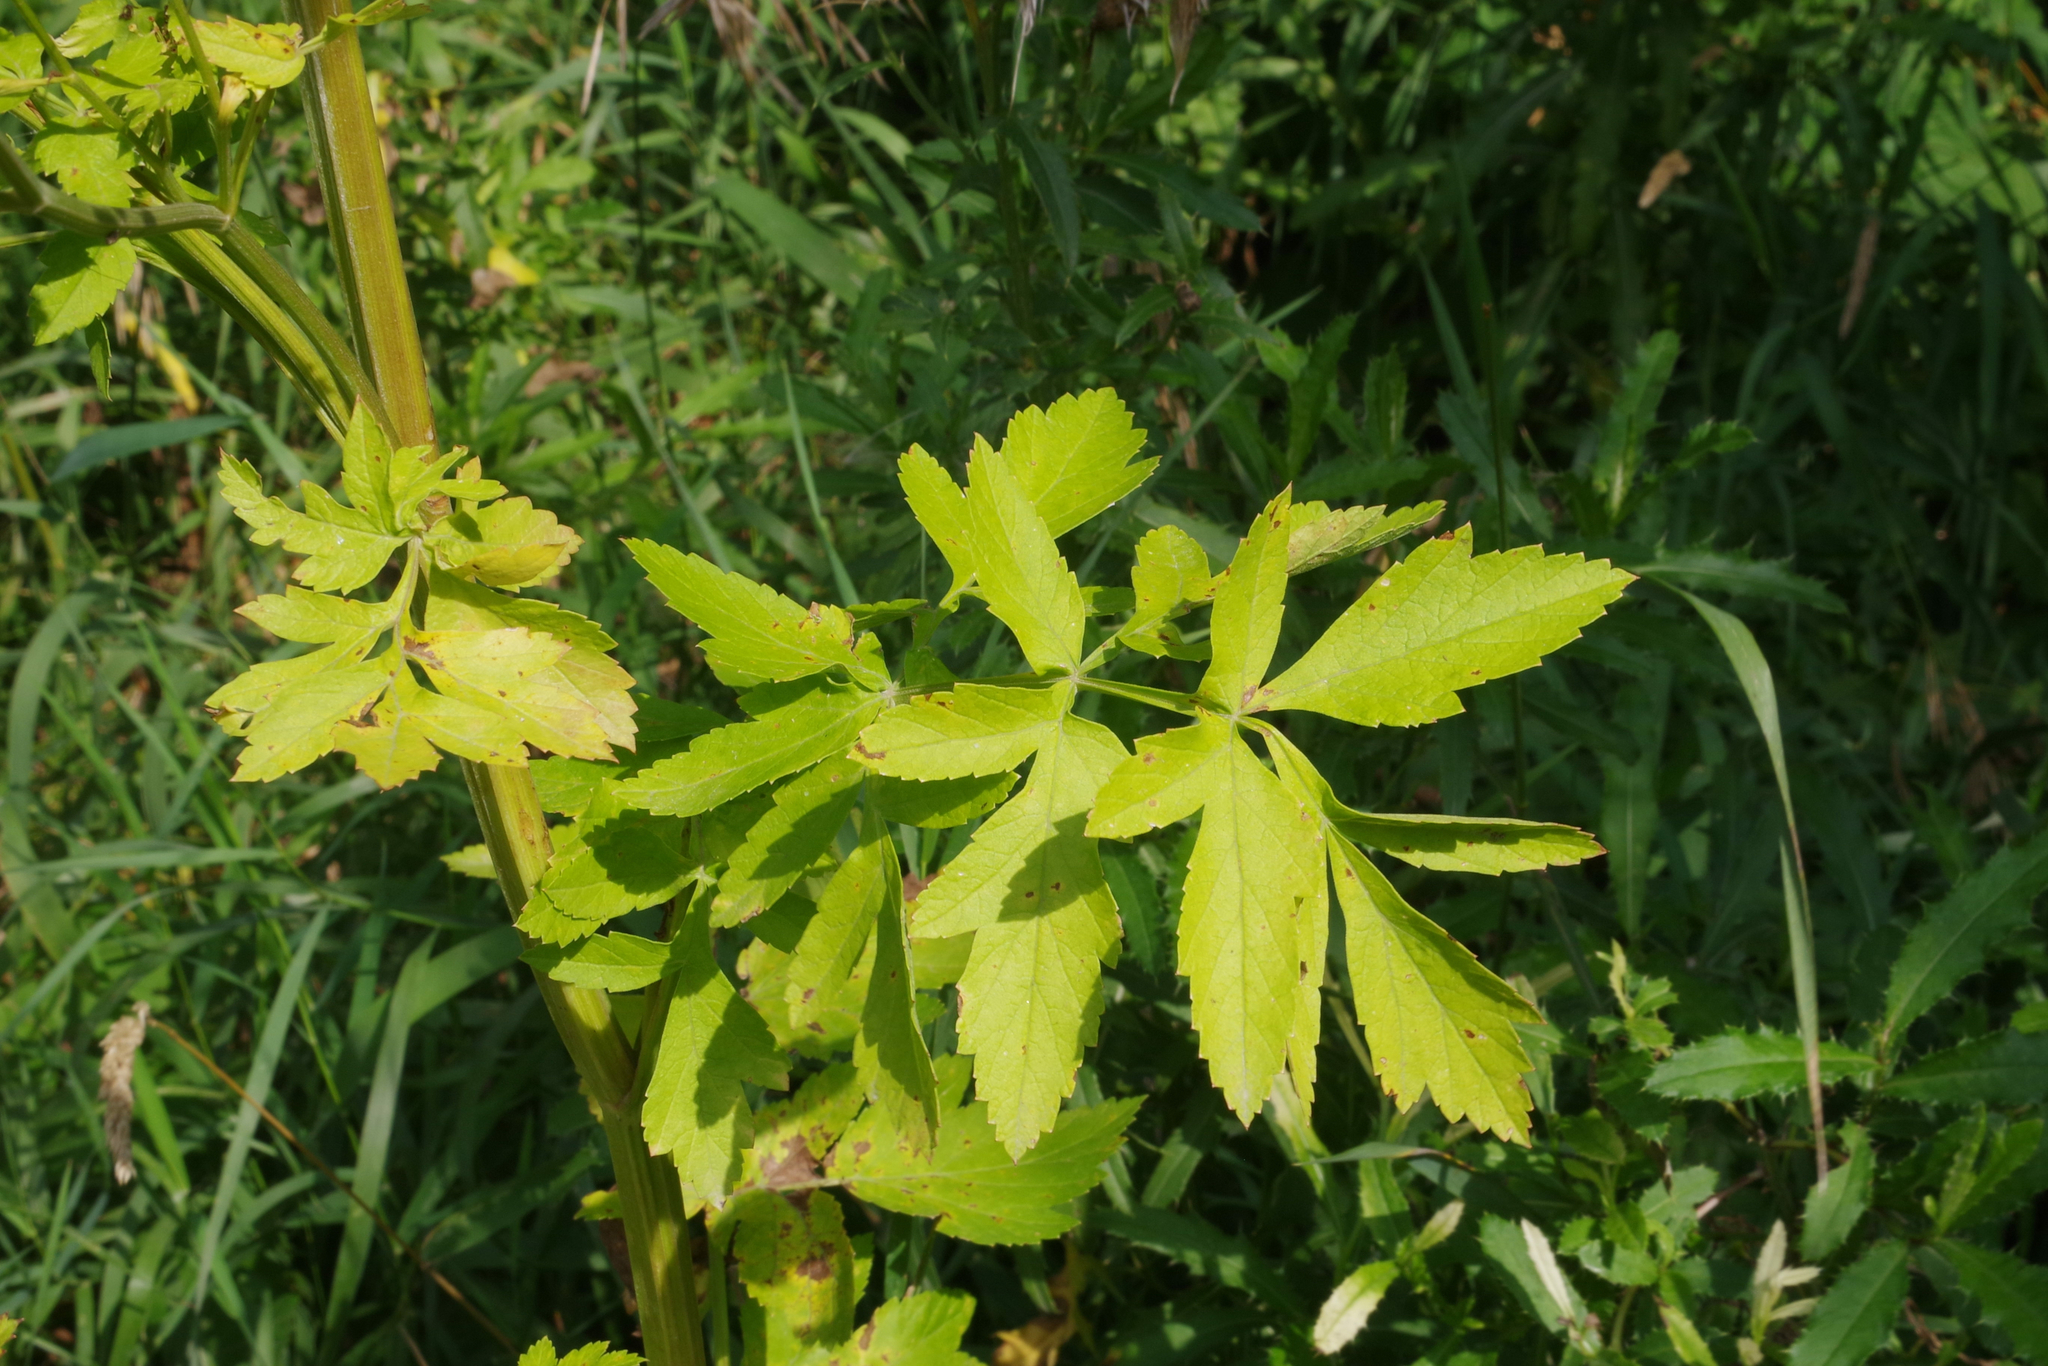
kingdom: Plantae
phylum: Tracheophyta
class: Magnoliopsida
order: Apiales
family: Apiaceae
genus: Pastinaca
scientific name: Pastinaca sativa
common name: Wild parsnip
